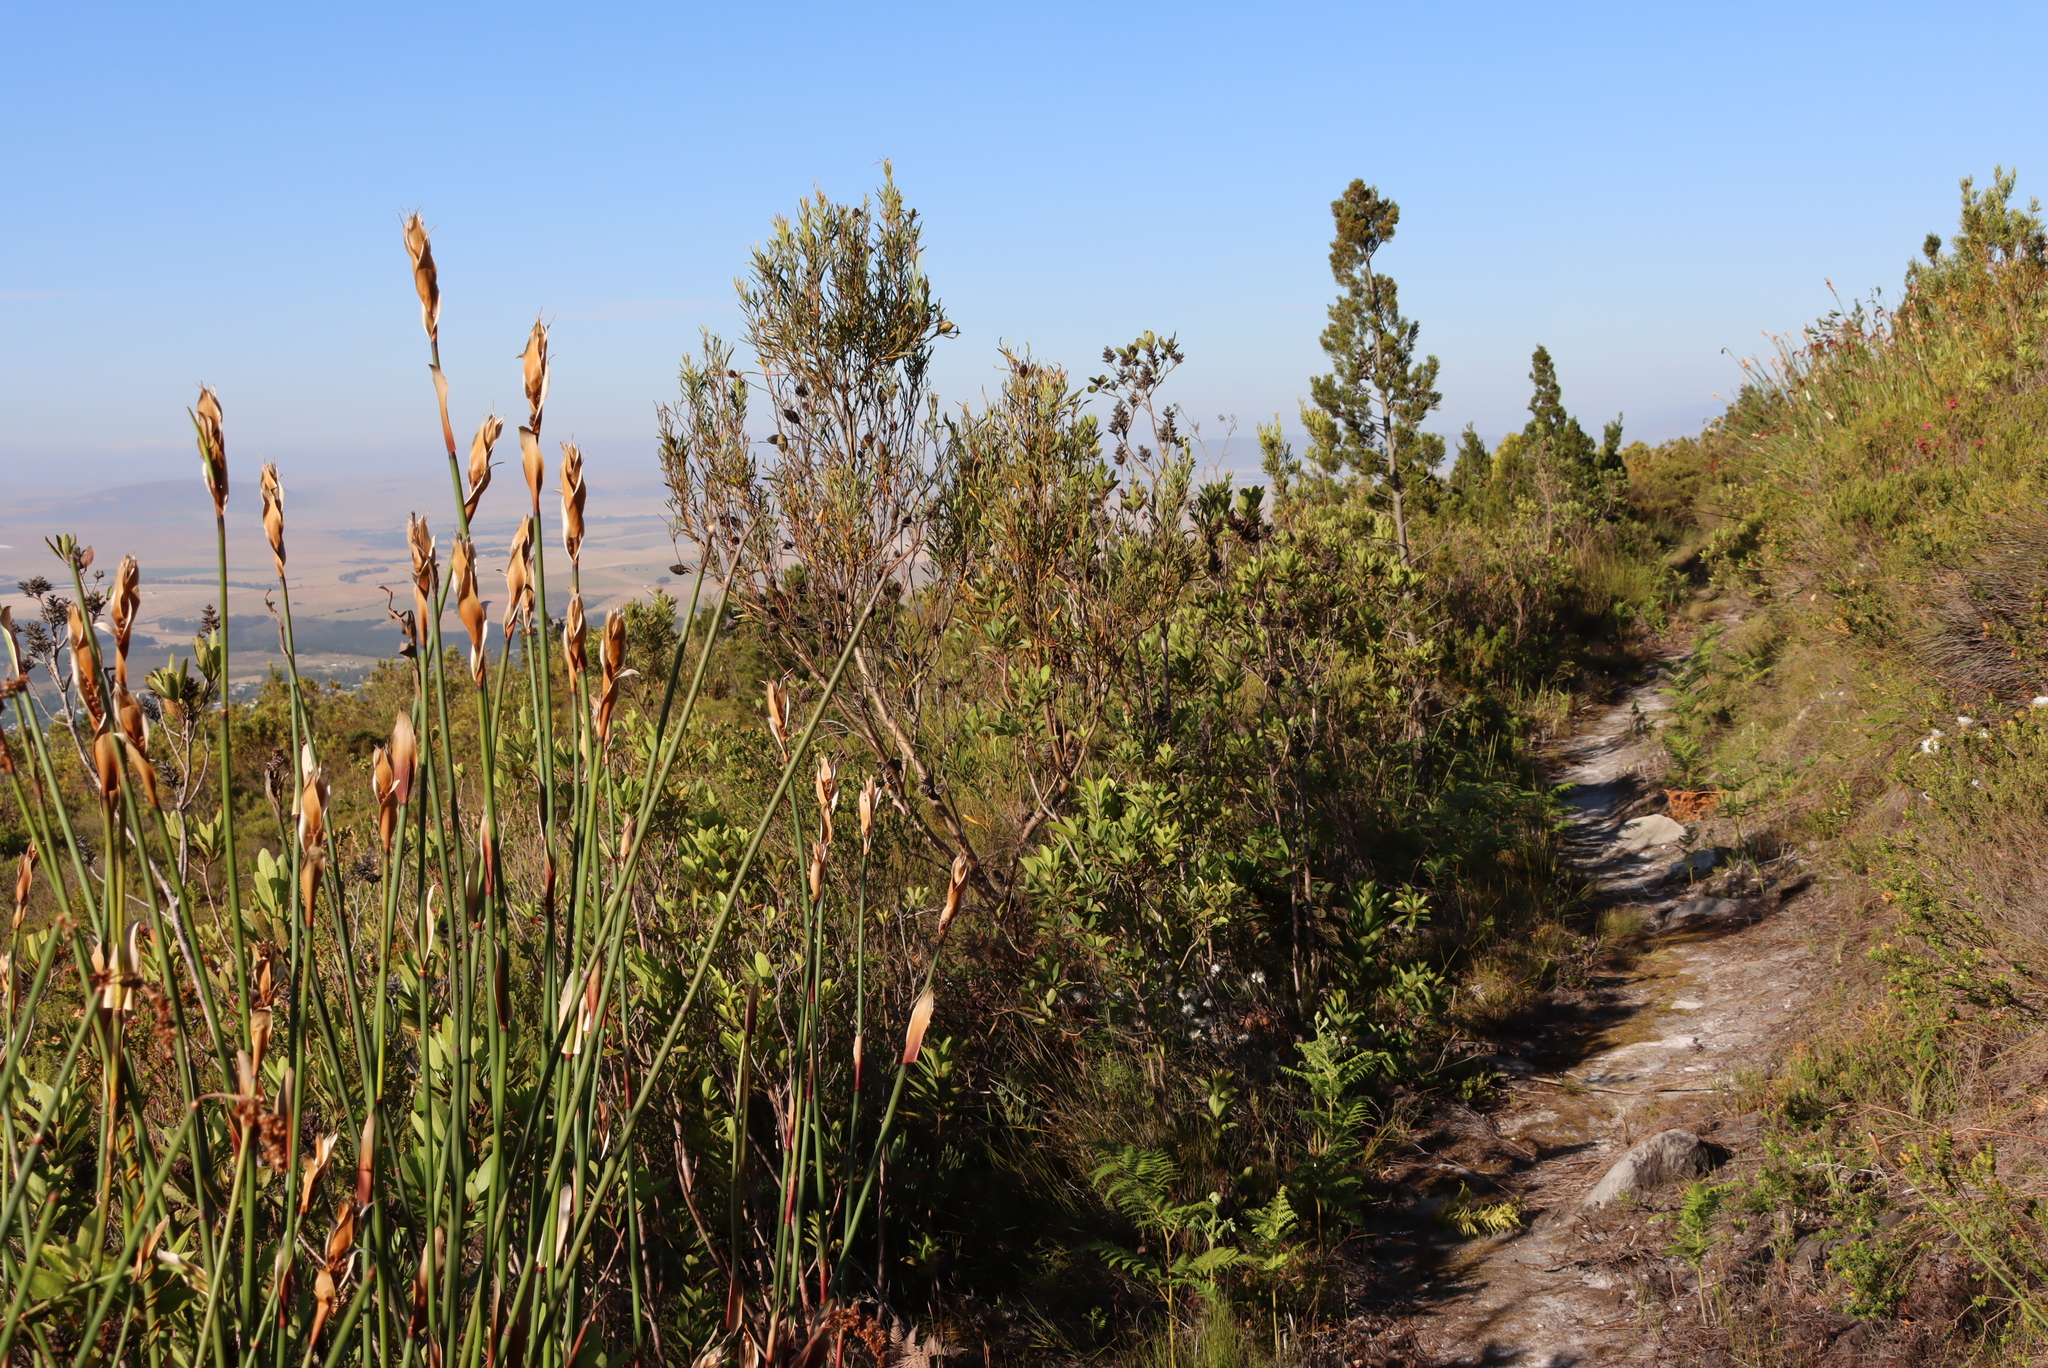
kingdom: Plantae
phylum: Tracheophyta
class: Pinopsida
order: Pinales
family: Cupressaceae
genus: Widdringtonia
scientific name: Widdringtonia nodiflora
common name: Cape cypress
